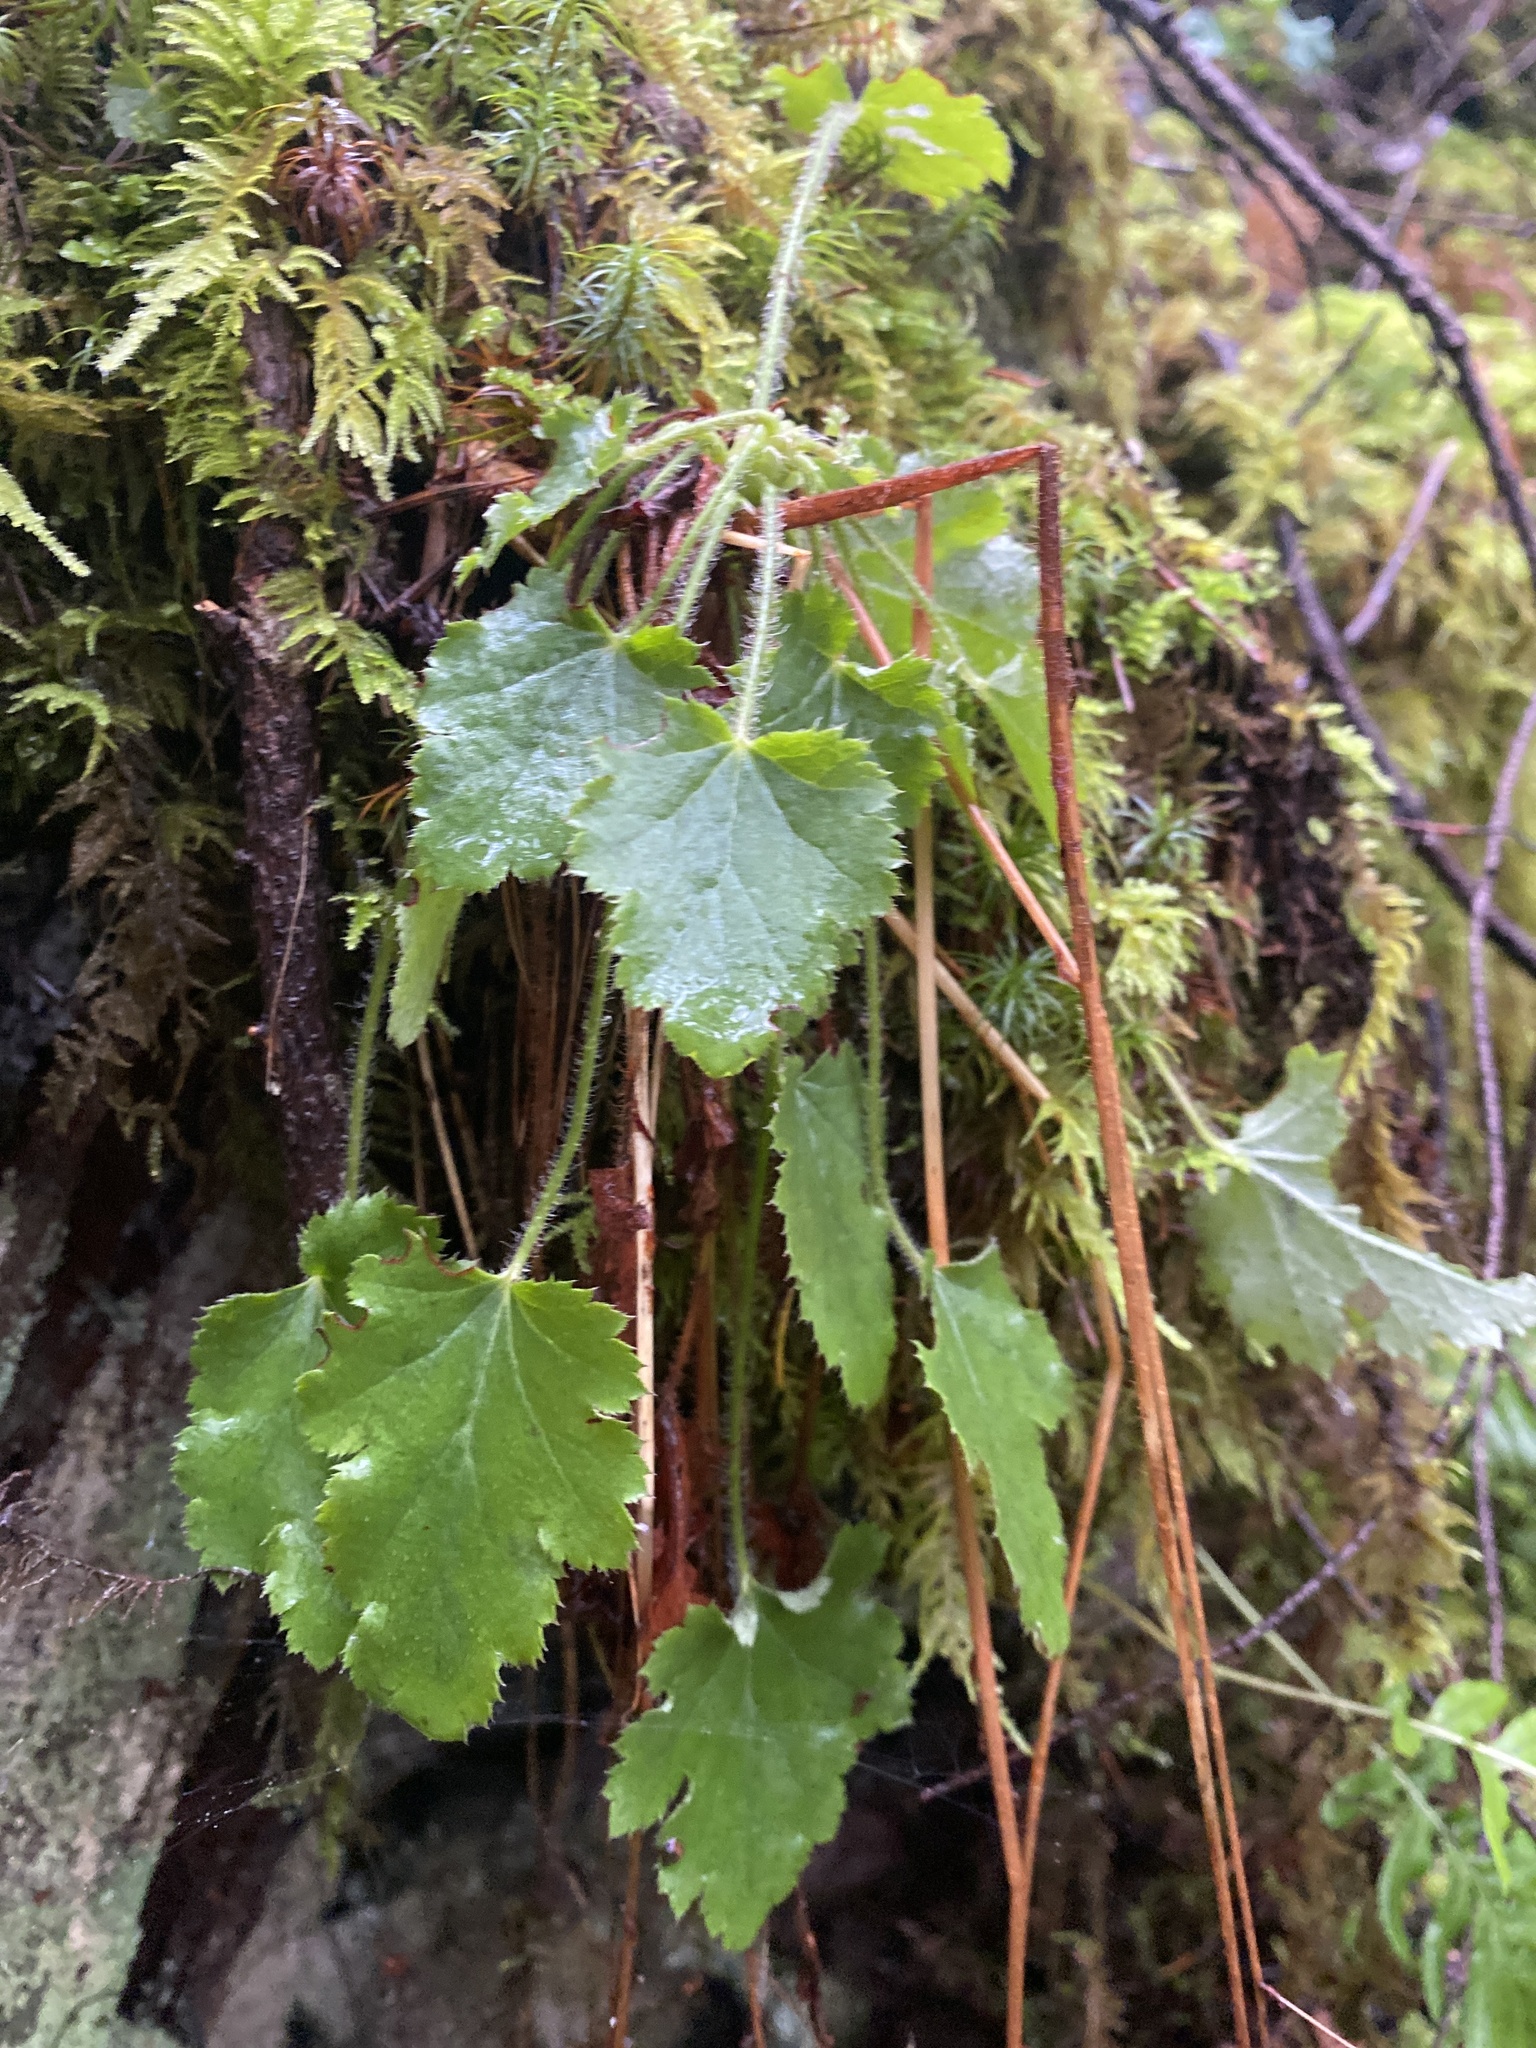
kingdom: Plantae
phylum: Tracheophyta
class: Magnoliopsida
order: Saxifragales
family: Saxifragaceae
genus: Heuchera
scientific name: Heuchera micrantha
